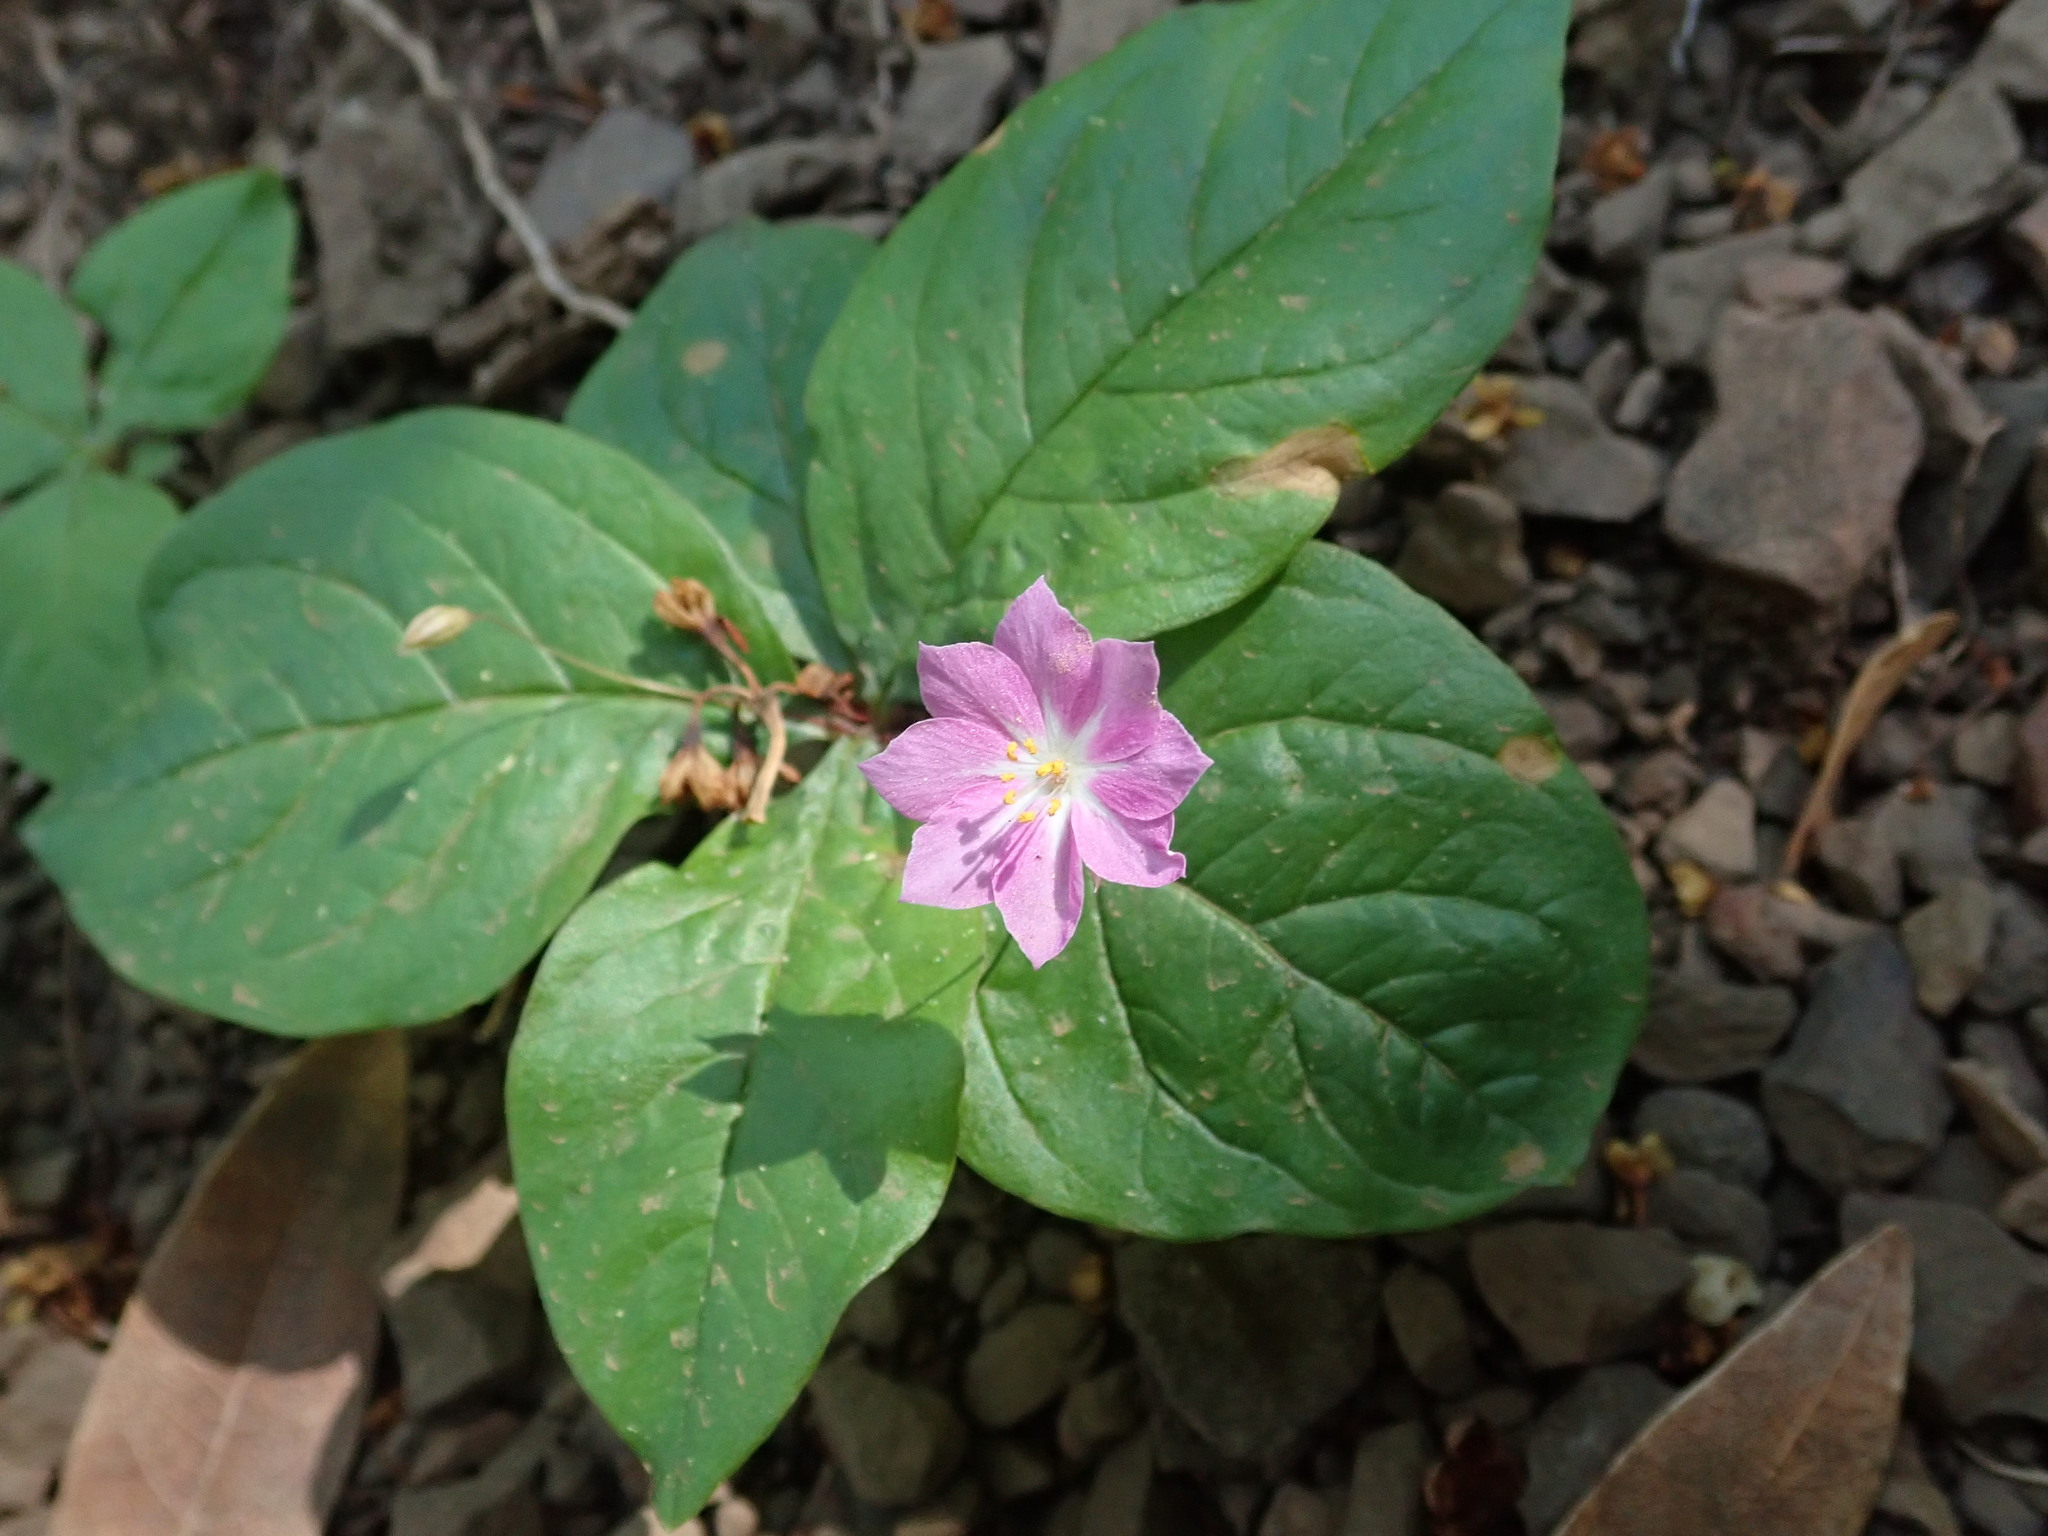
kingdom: Plantae
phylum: Tracheophyta
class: Magnoliopsida
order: Ericales
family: Primulaceae
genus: Lysimachia
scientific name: Lysimachia latifolia
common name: Pacific starflower
